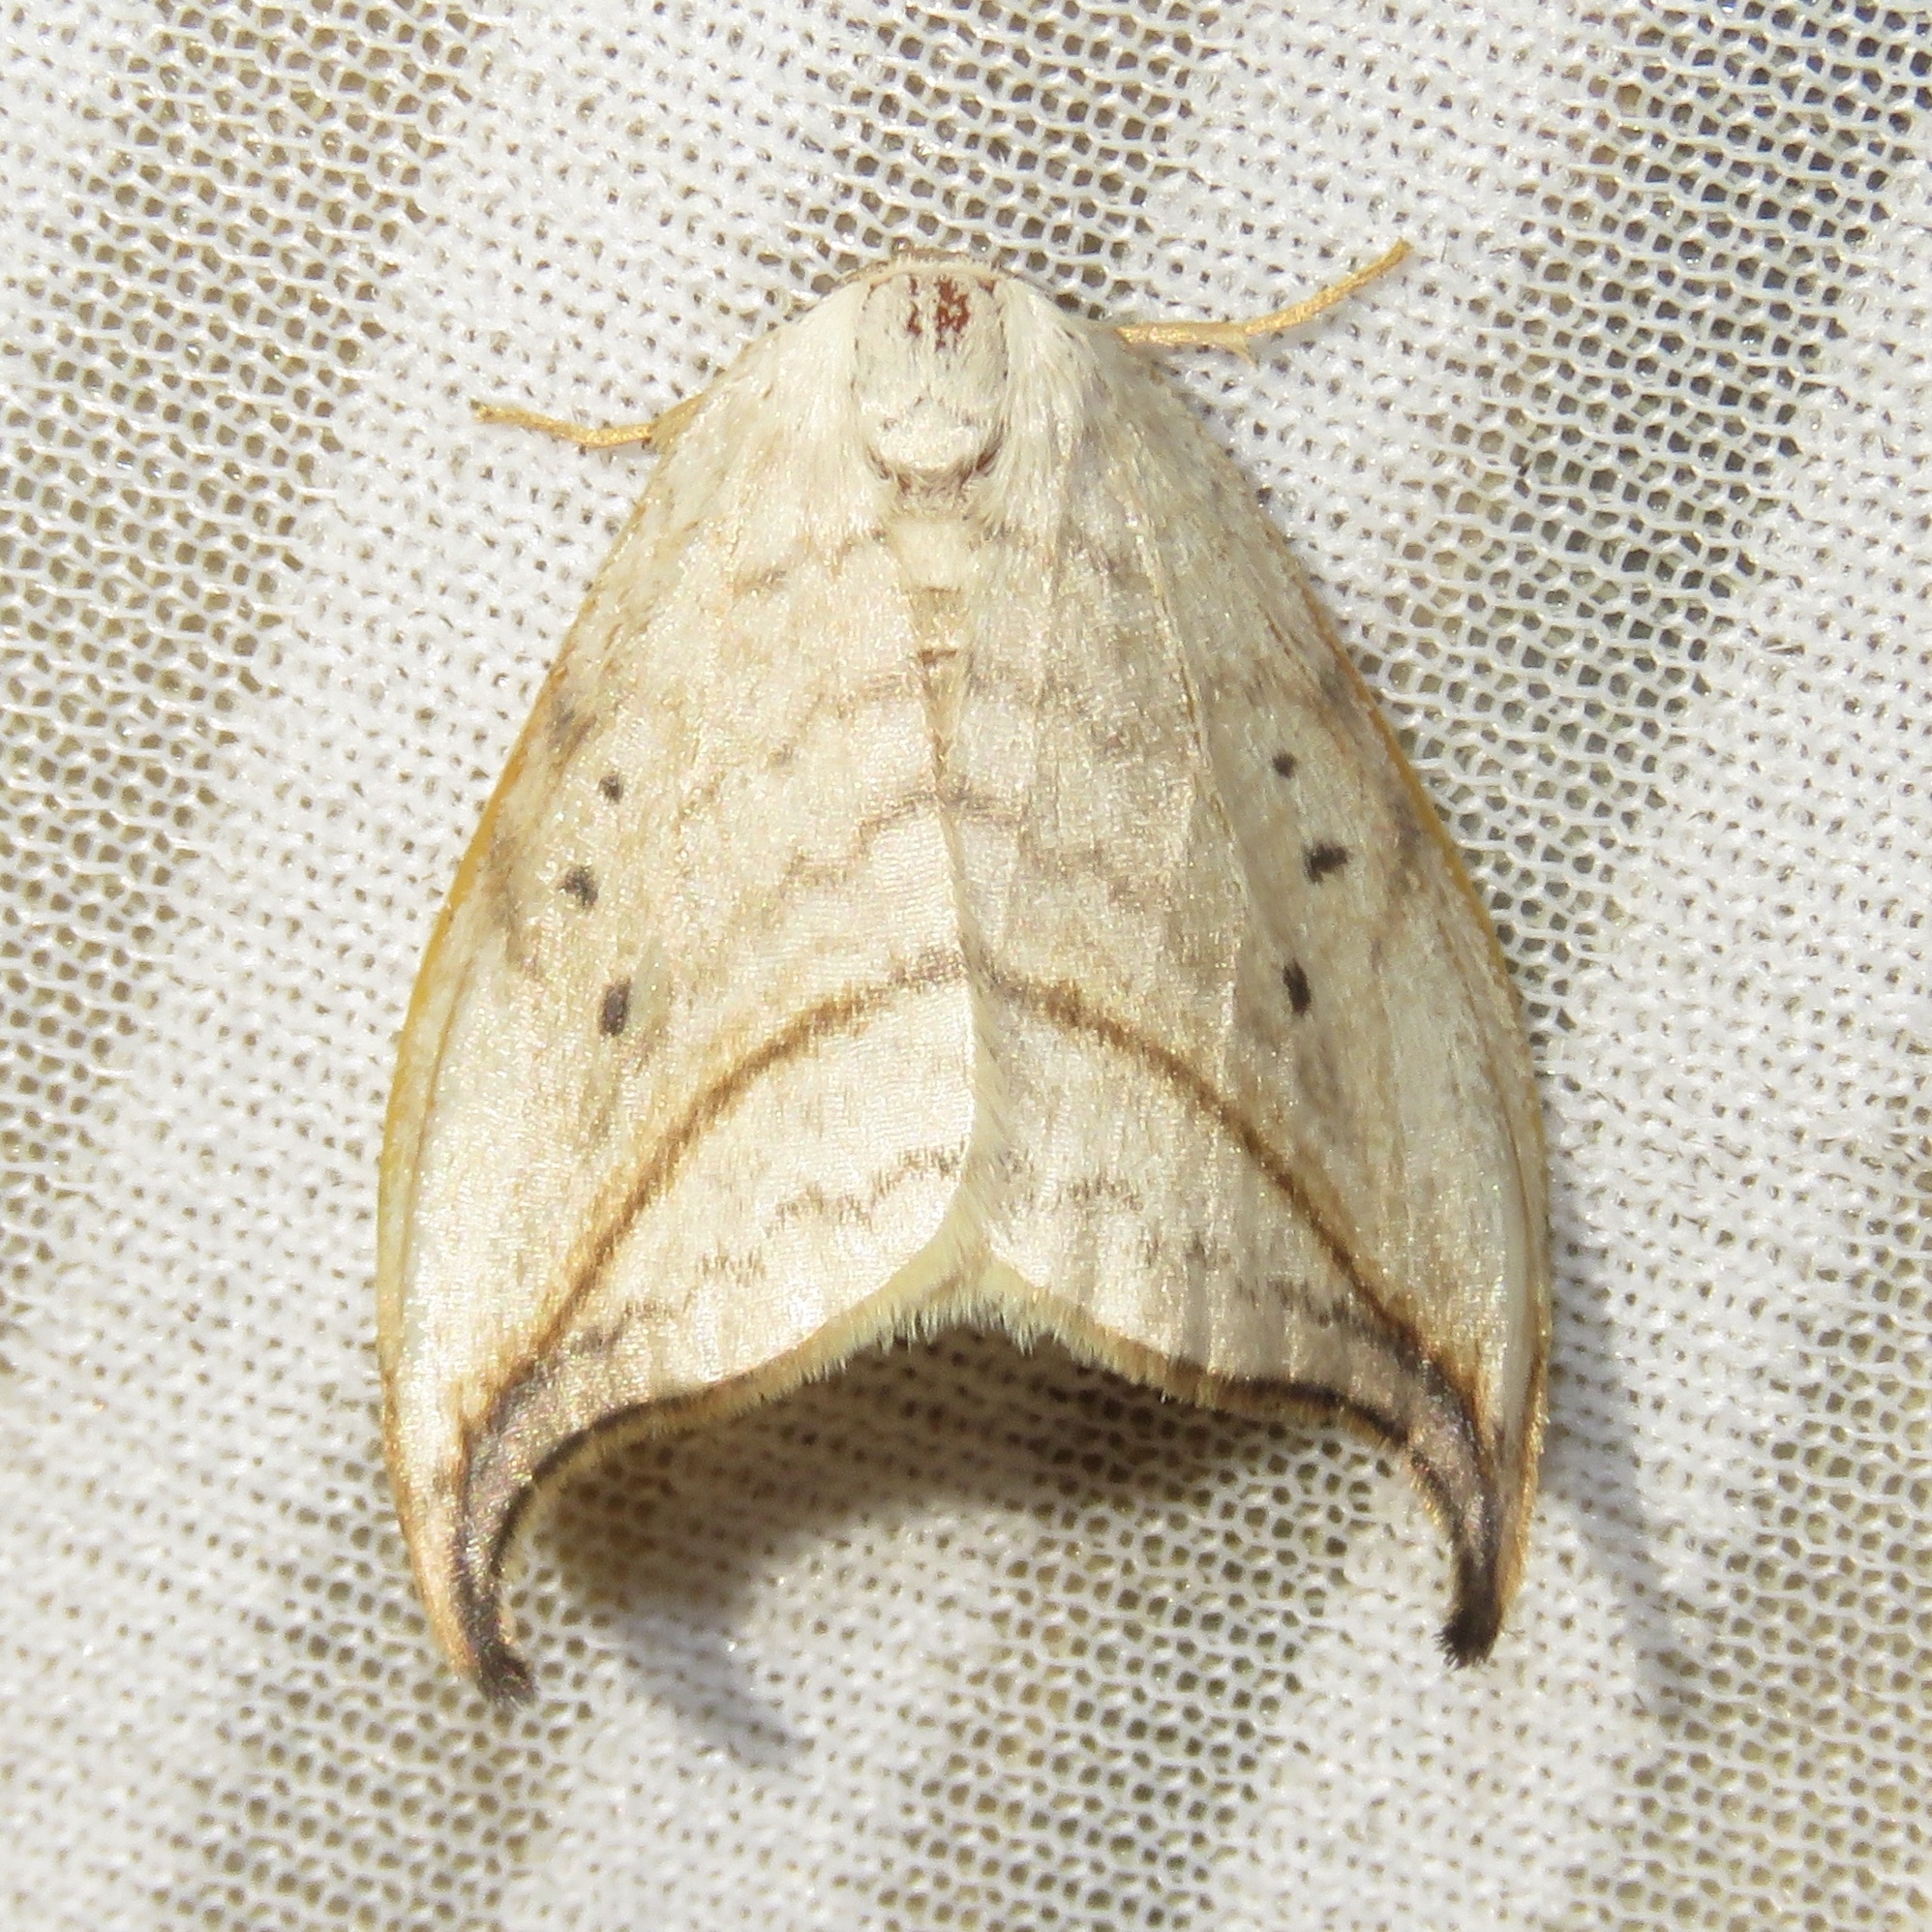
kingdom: Animalia
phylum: Arthropoda
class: Insecta
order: Lepidoptera
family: Drepanidae
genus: Drepana
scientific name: Drepana arcuata
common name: Arched hooktip moth
